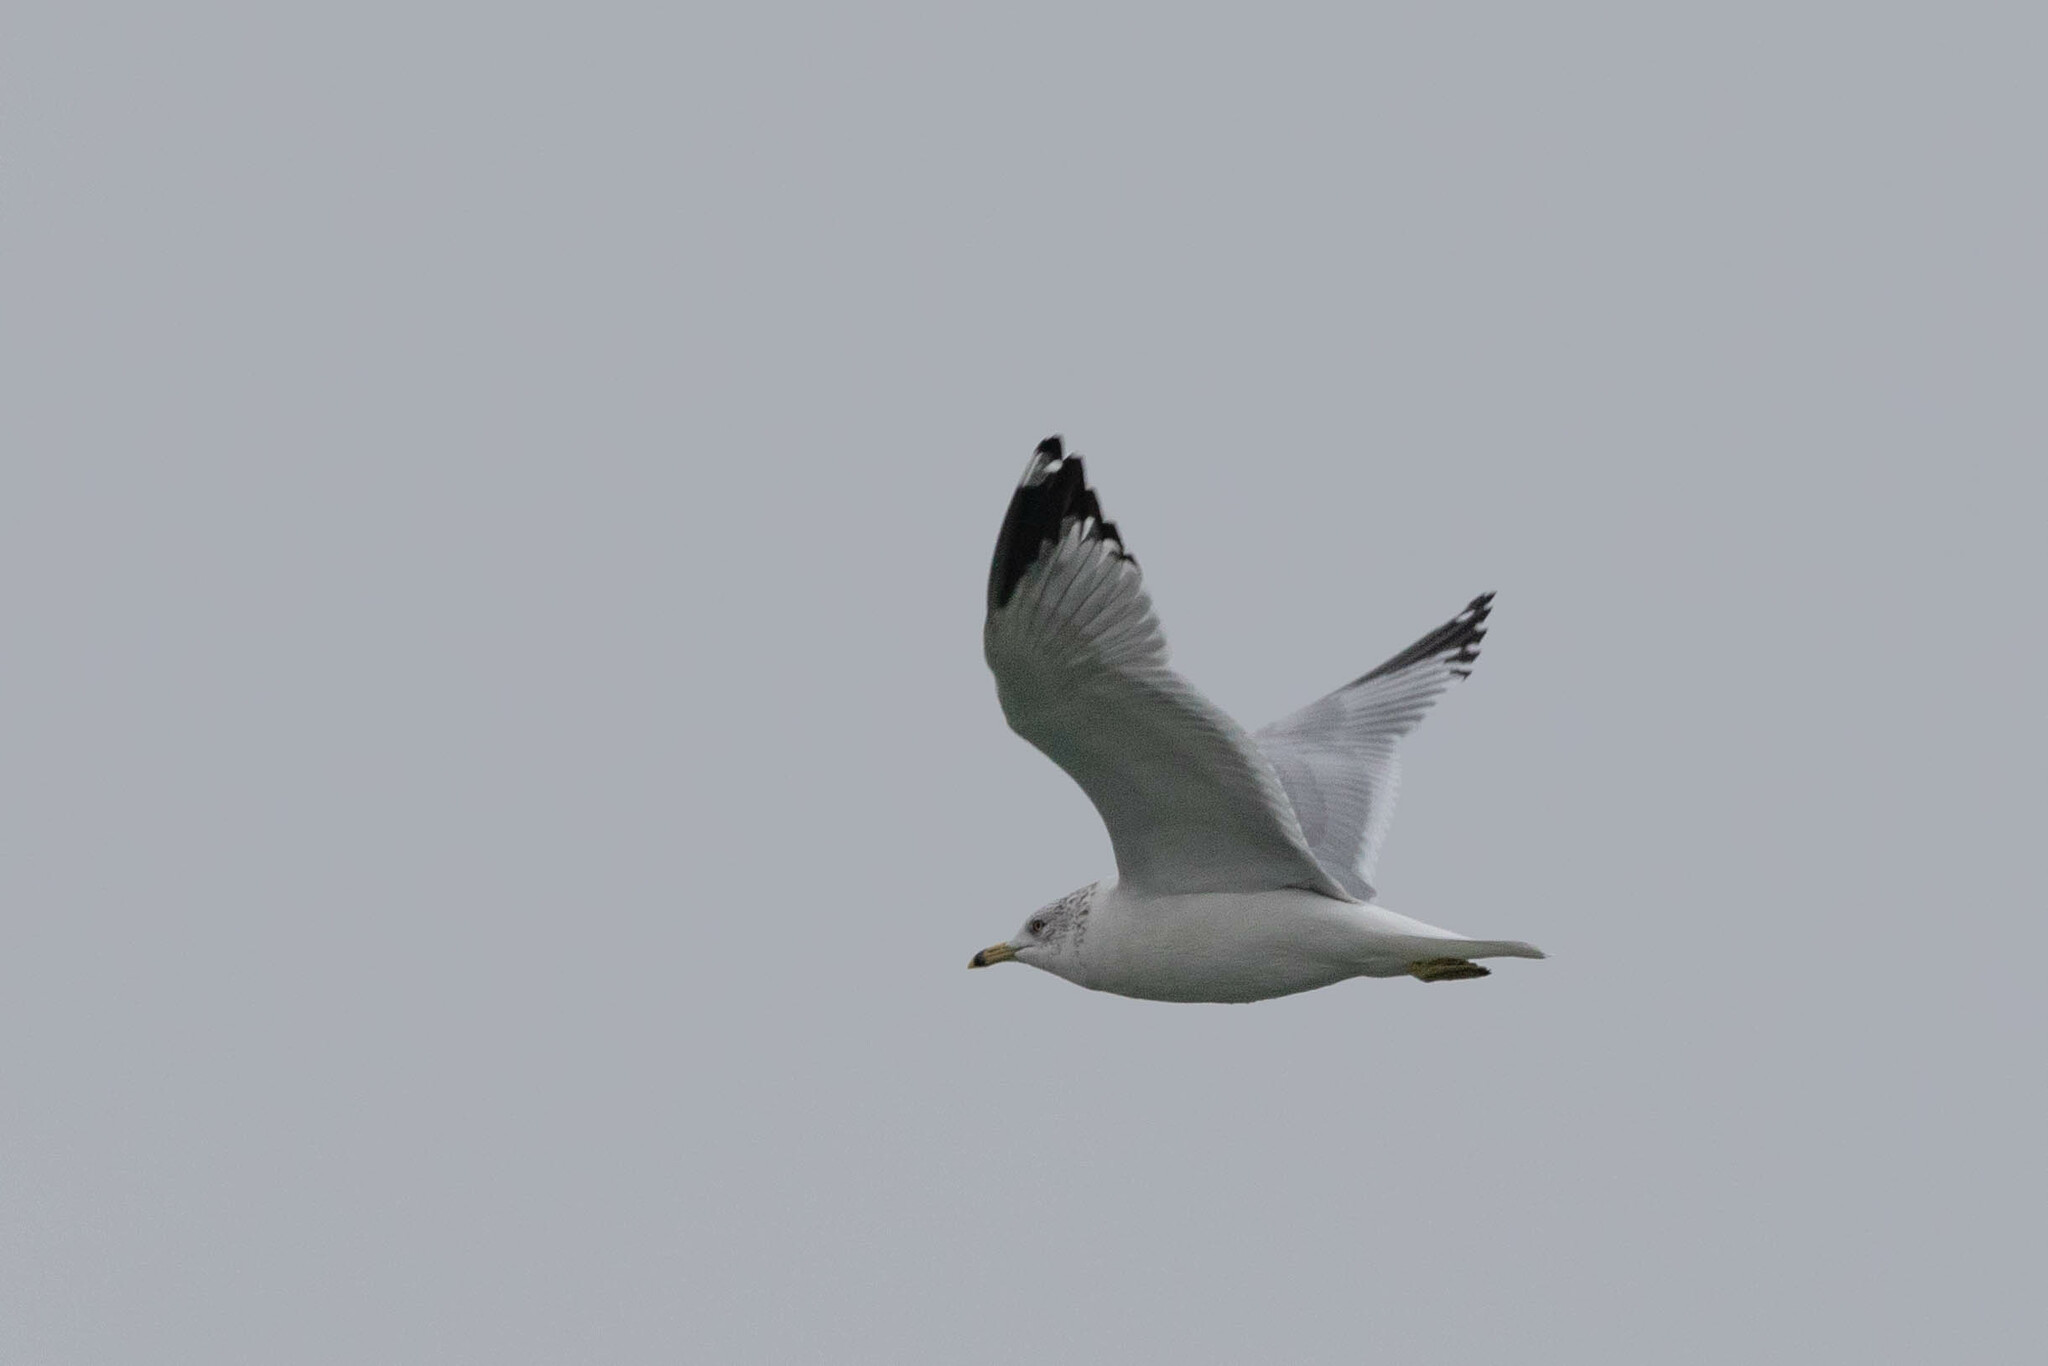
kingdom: Animalia
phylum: Chordata
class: Aves
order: Charadriiformes
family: Laridae
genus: Larus
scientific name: Larus delawarensis
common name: Ring-billed gull
